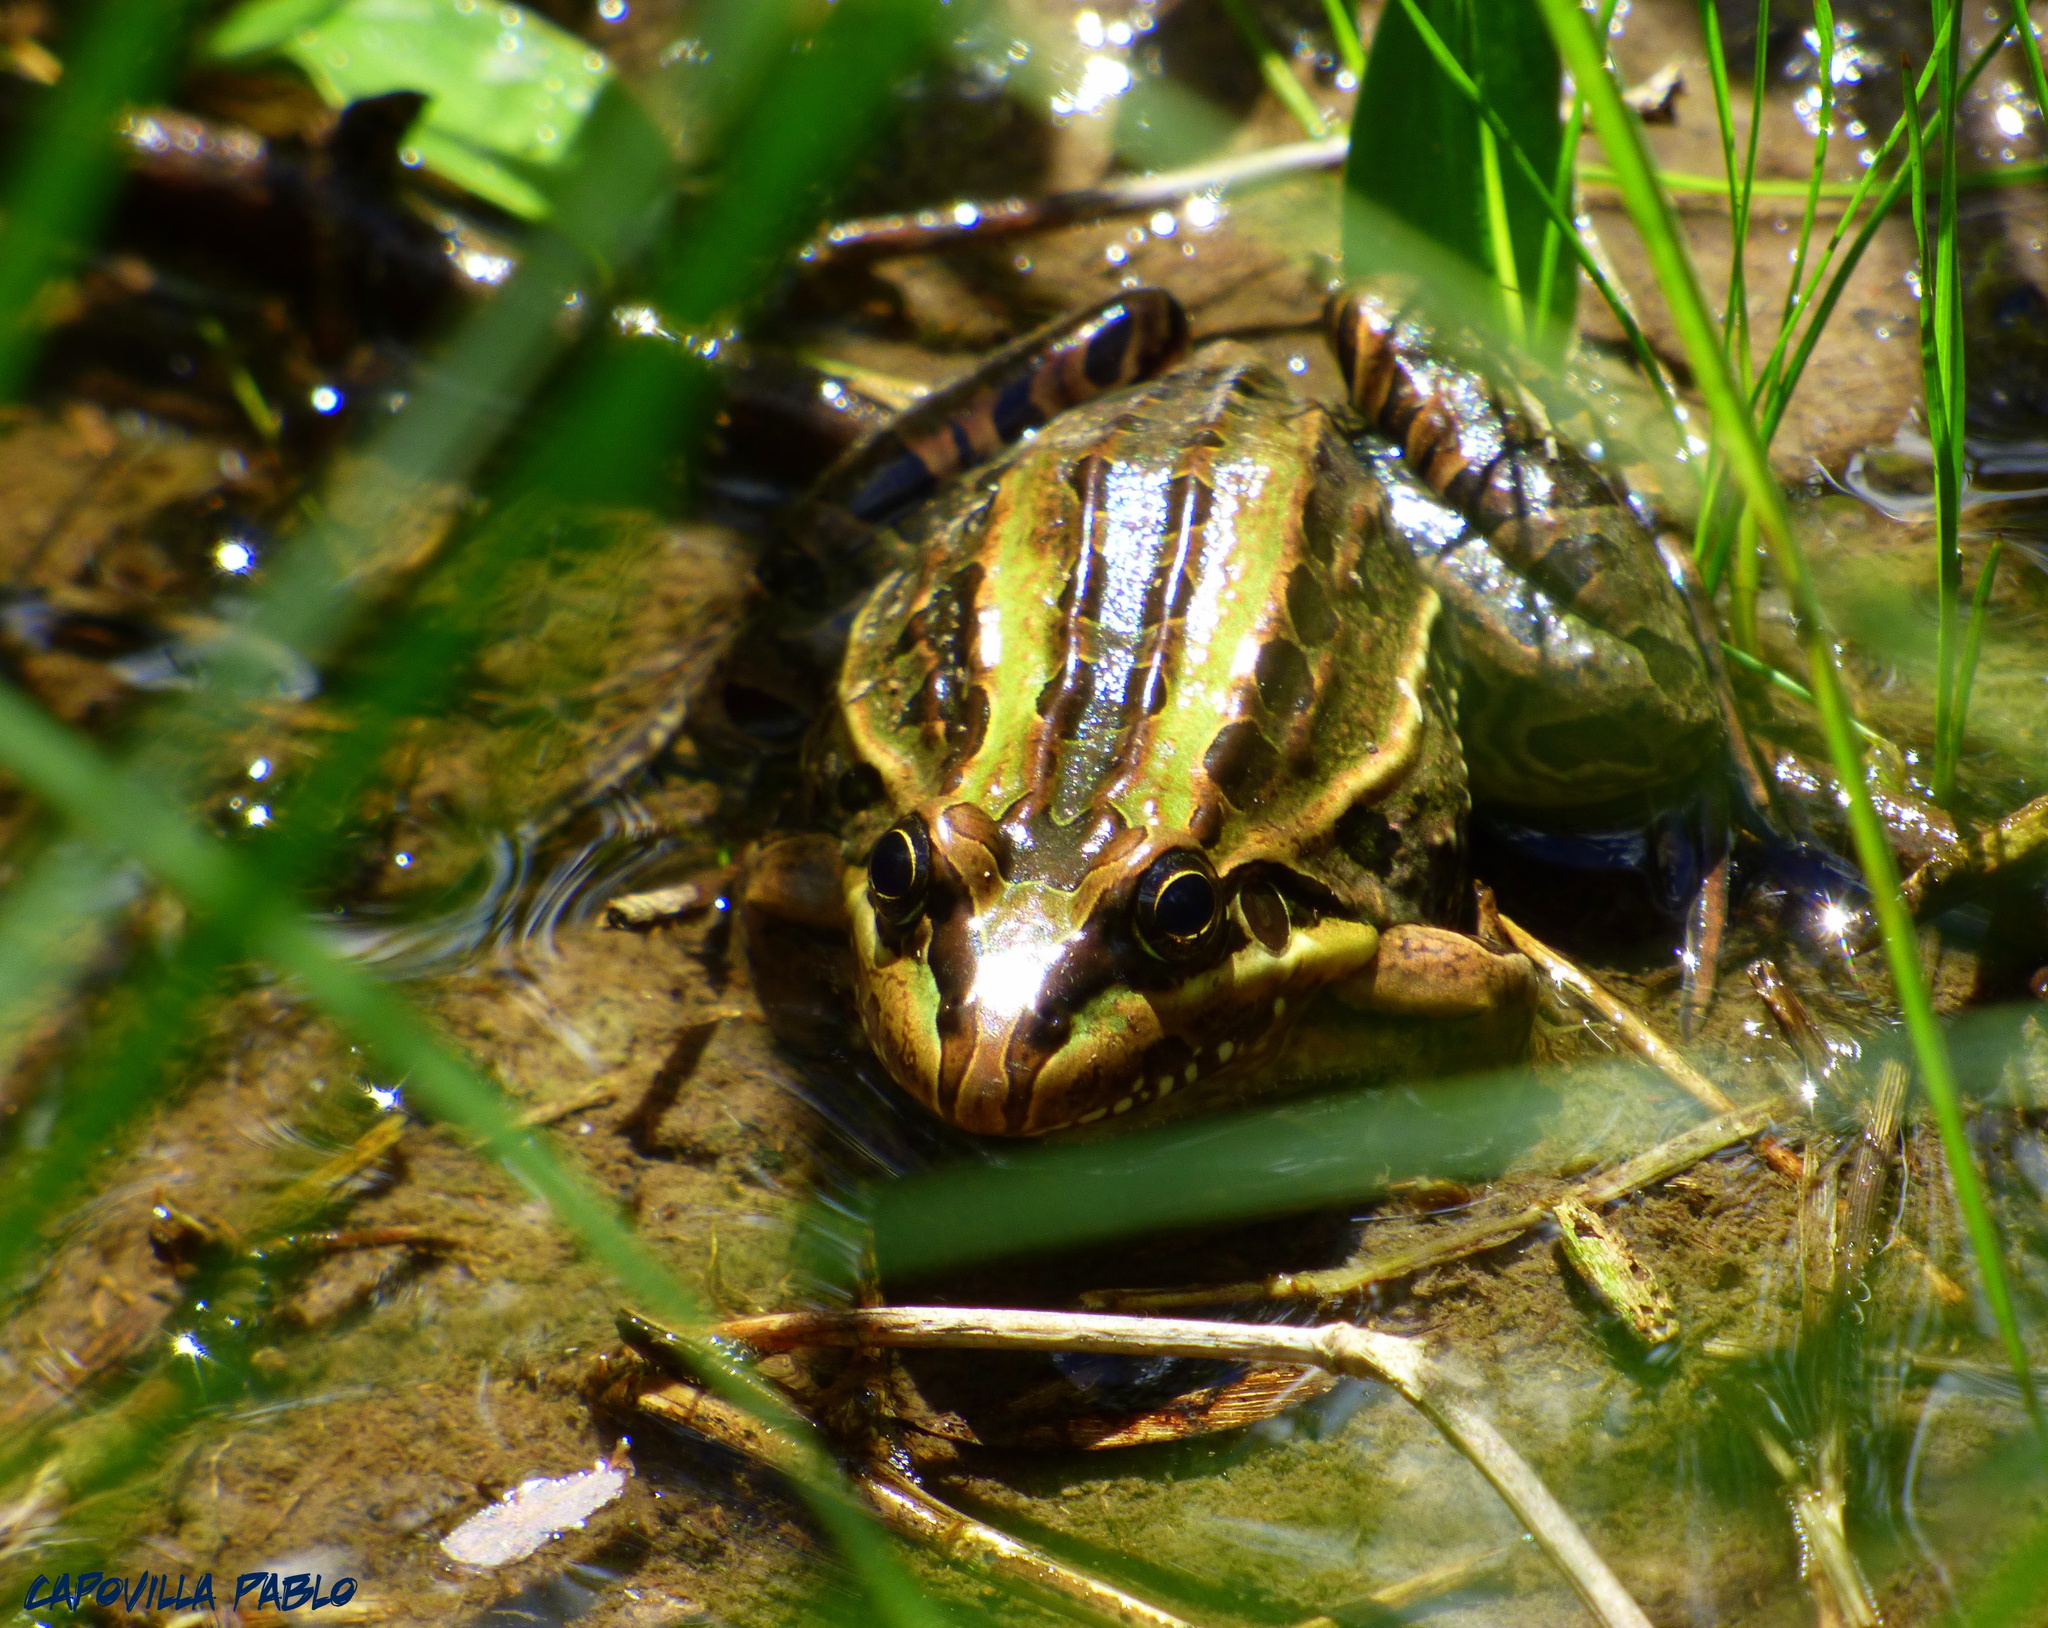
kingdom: Animalia
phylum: Chordata
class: Amphibia
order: Anura
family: Leptodactylidae
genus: Leptodactylus
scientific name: Leptodactylus luctator
